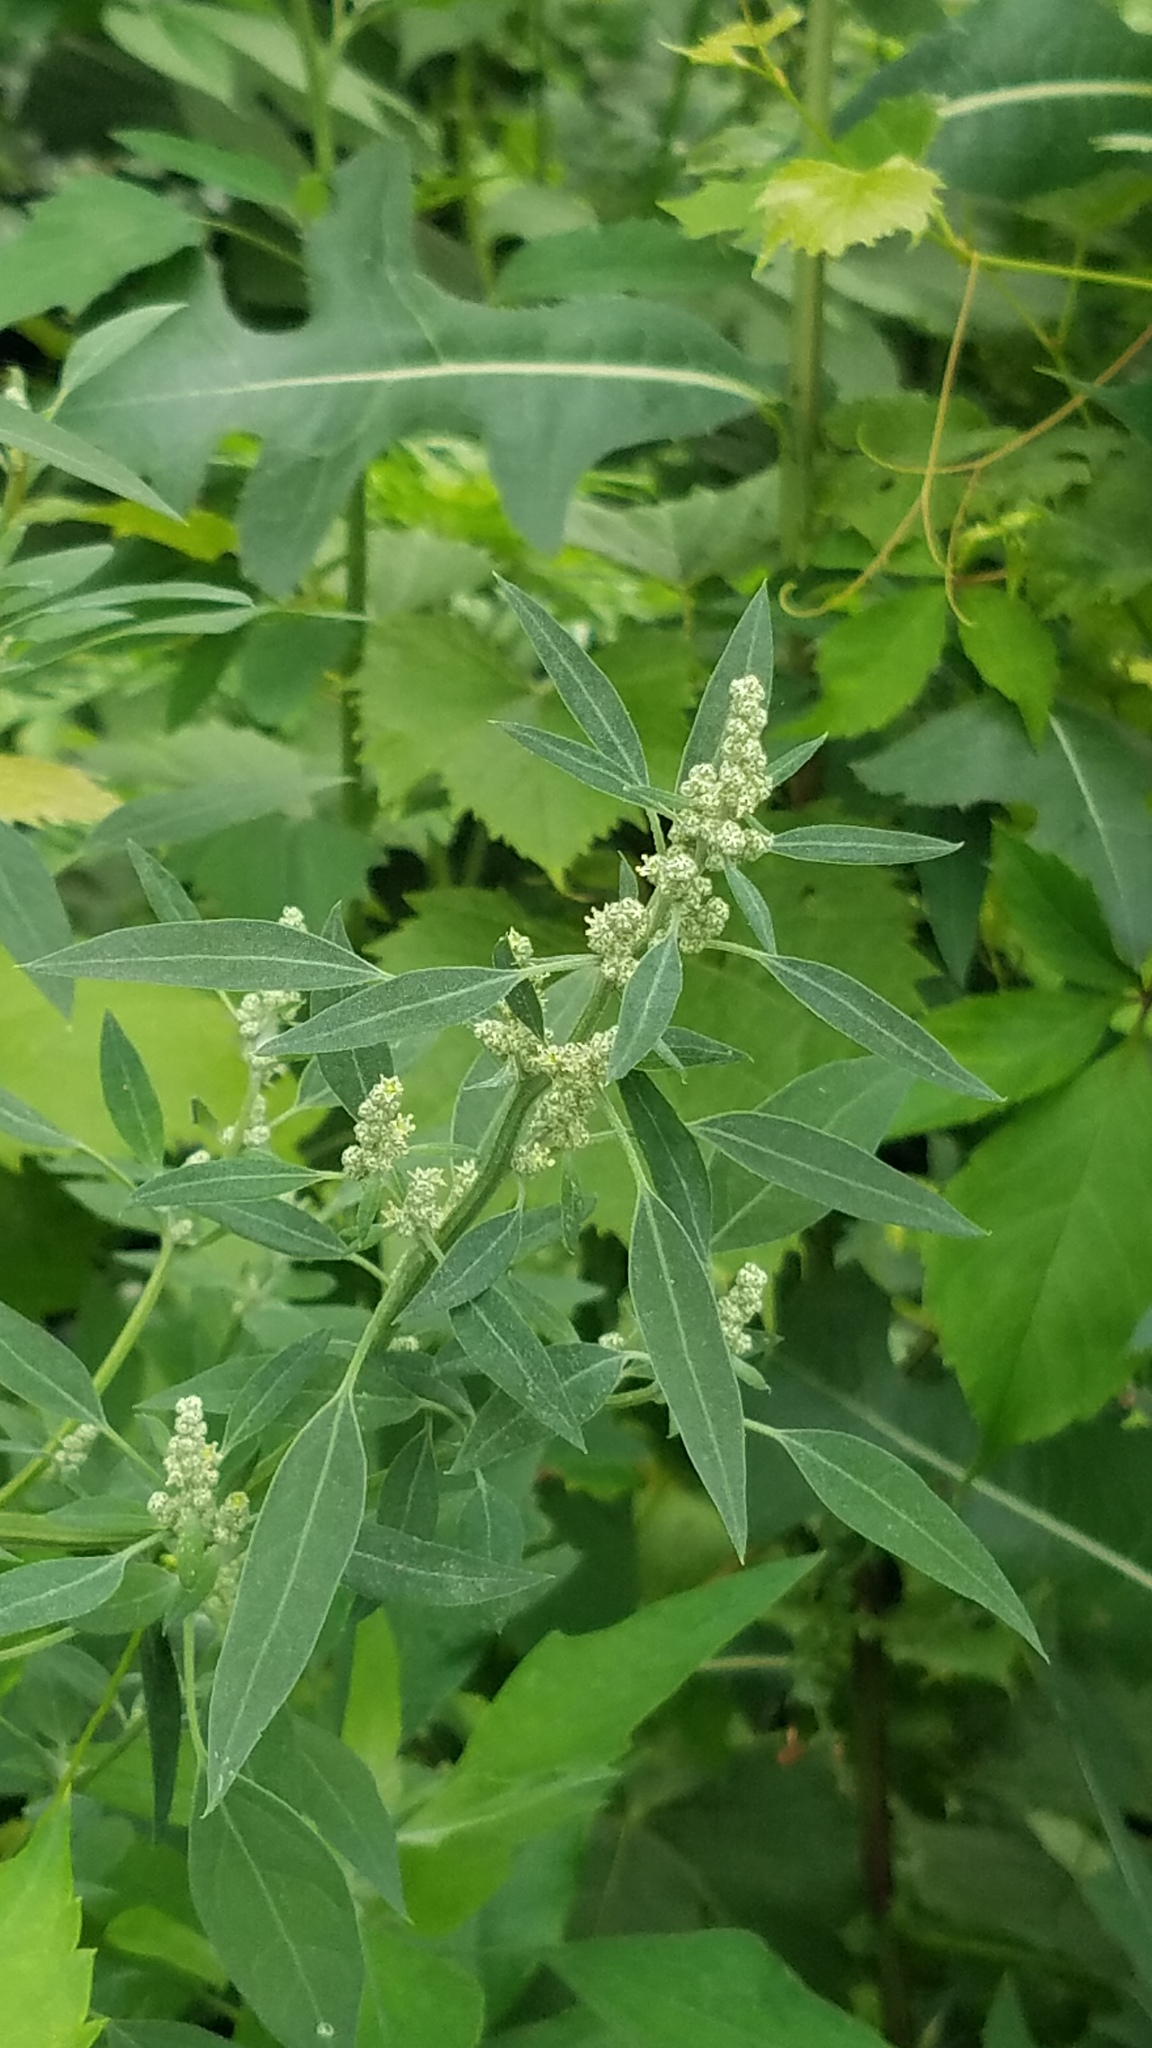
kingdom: Plantae
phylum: Tracheophyta
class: Magnoliopsida
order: Caryophyllales
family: Amaranthaceae
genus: Chenopodium
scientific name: Chenopodium album
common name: Fat-hen
